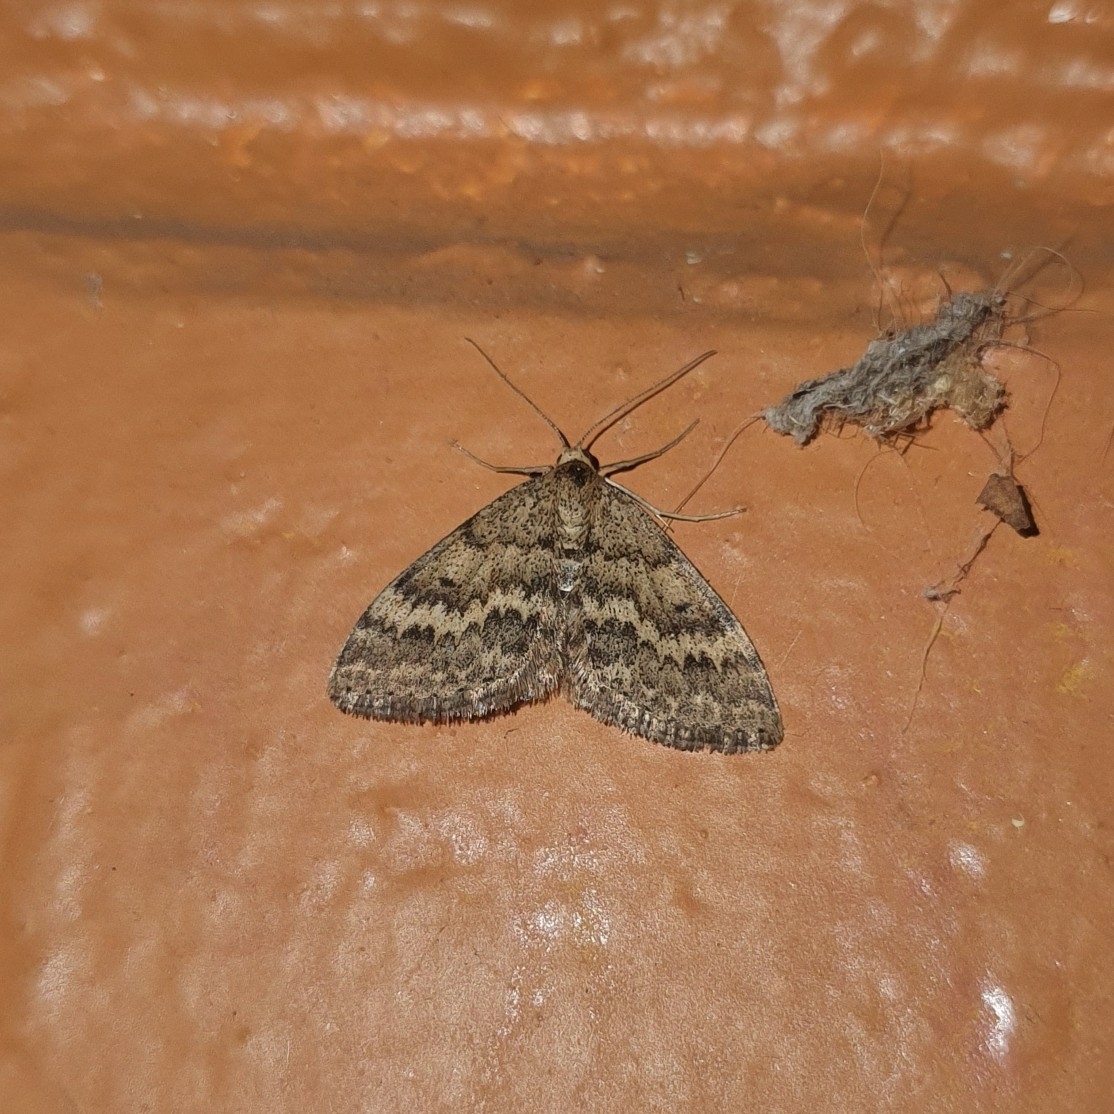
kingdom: Animalia
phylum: Arthropoda
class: Insecta
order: Lepidoptera
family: Geometridae
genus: Scopula
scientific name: Scopula rubraria
